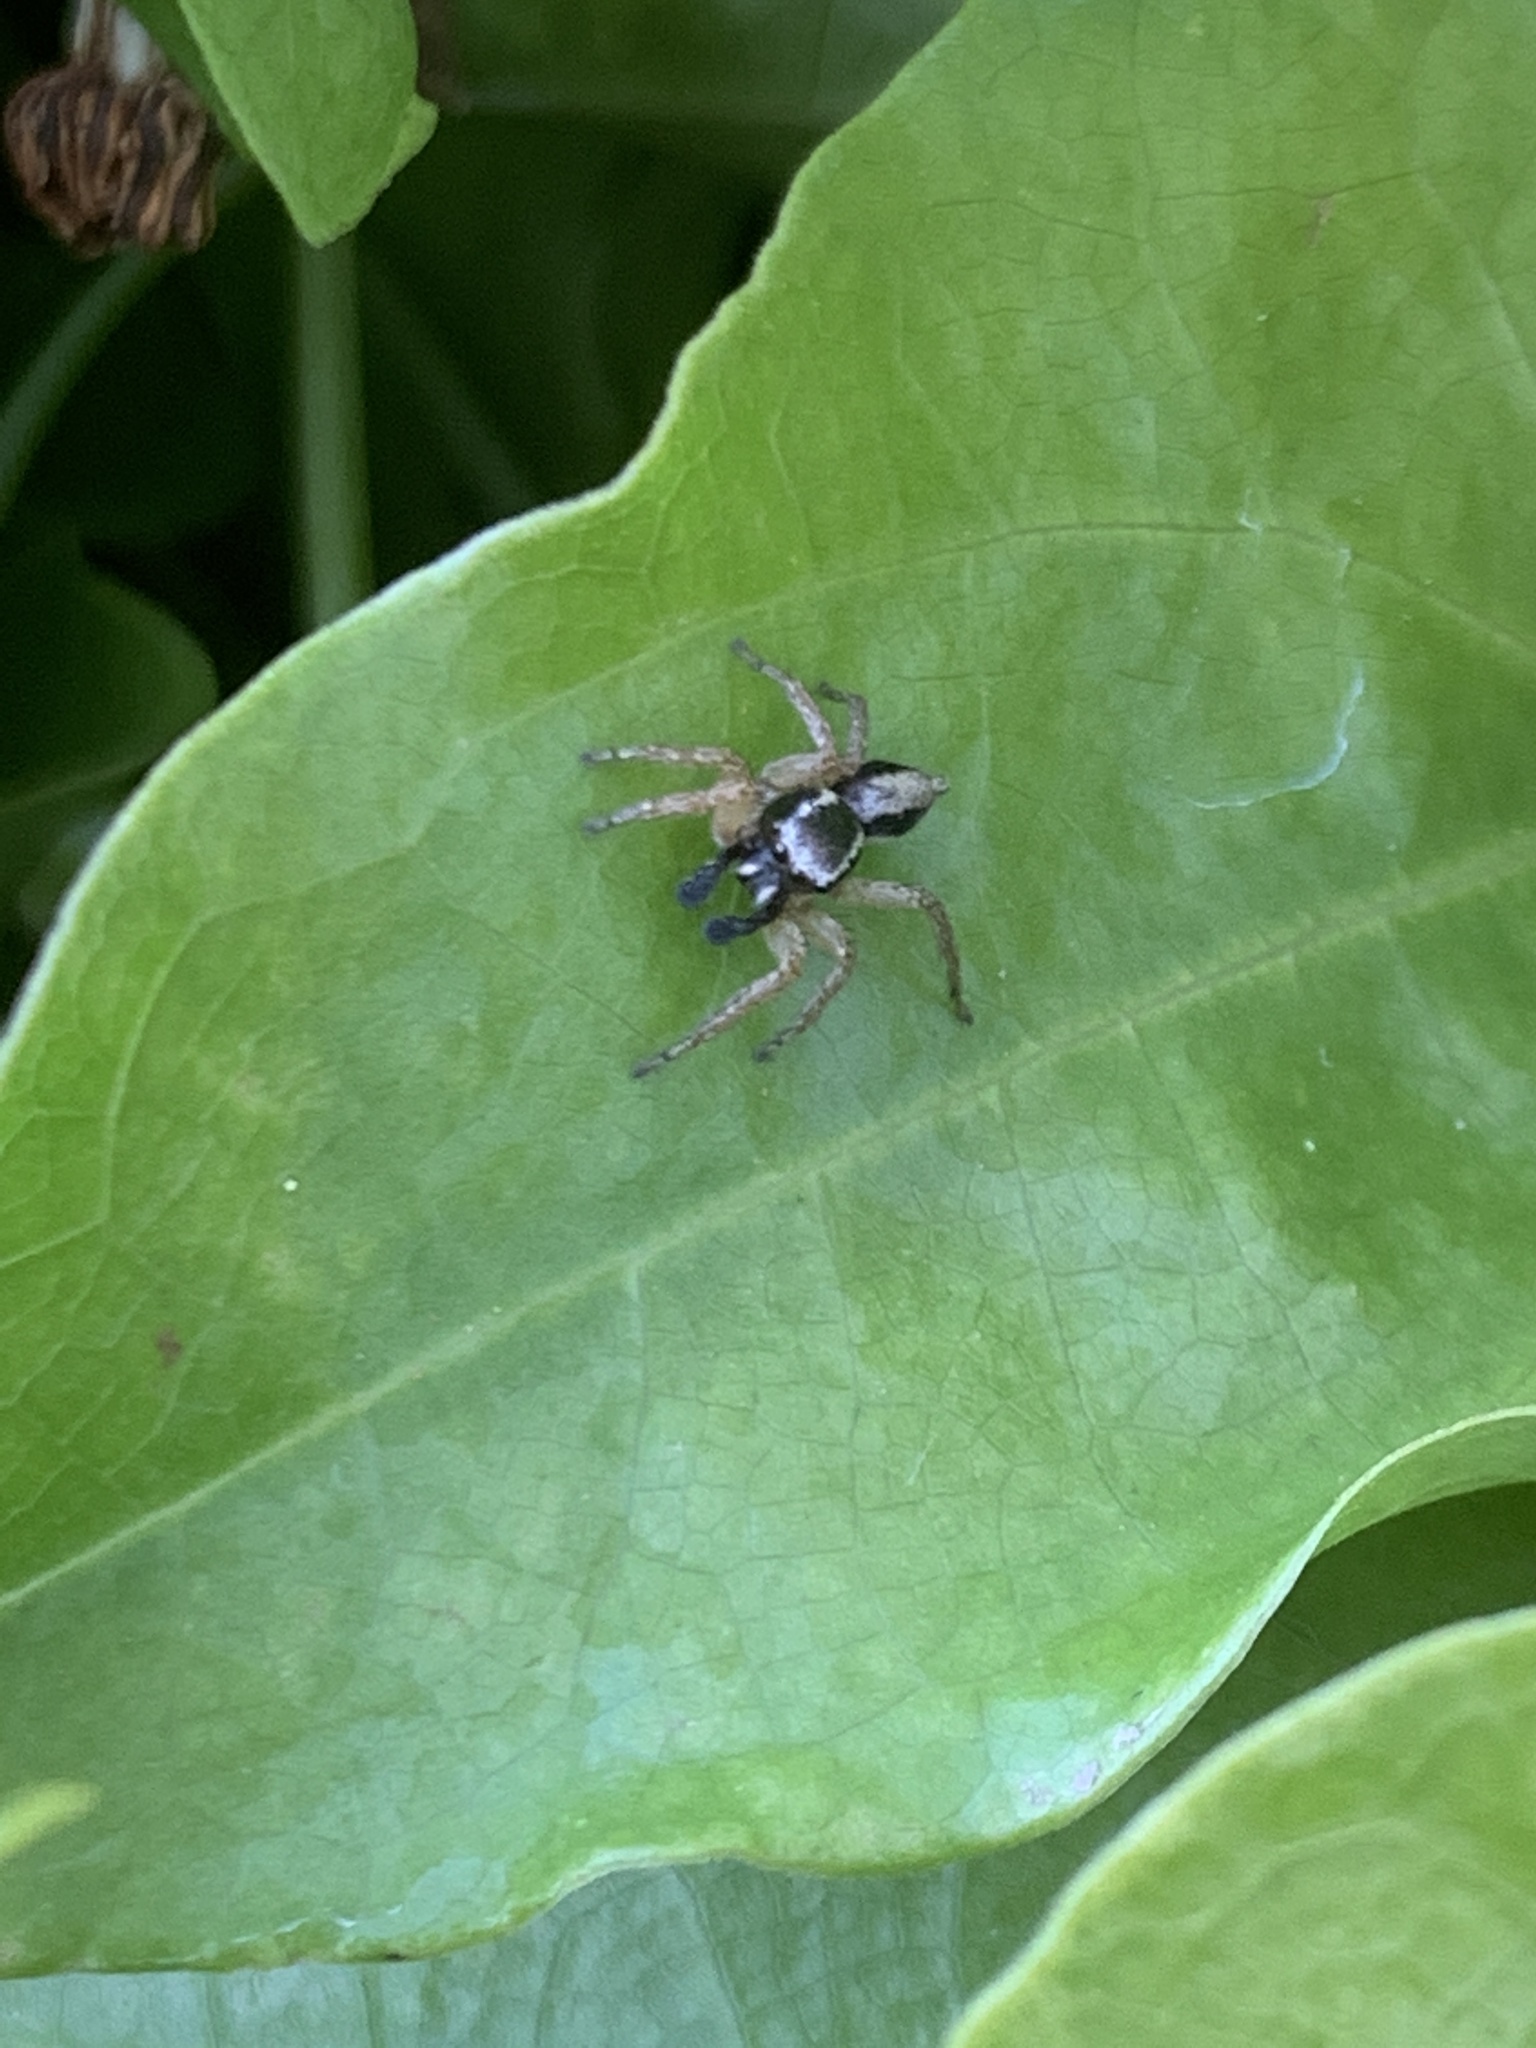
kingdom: Animalia
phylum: Arthropoda
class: Arachnida
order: Araneae
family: Salticidae
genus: Aphirape
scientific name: Aphirape
